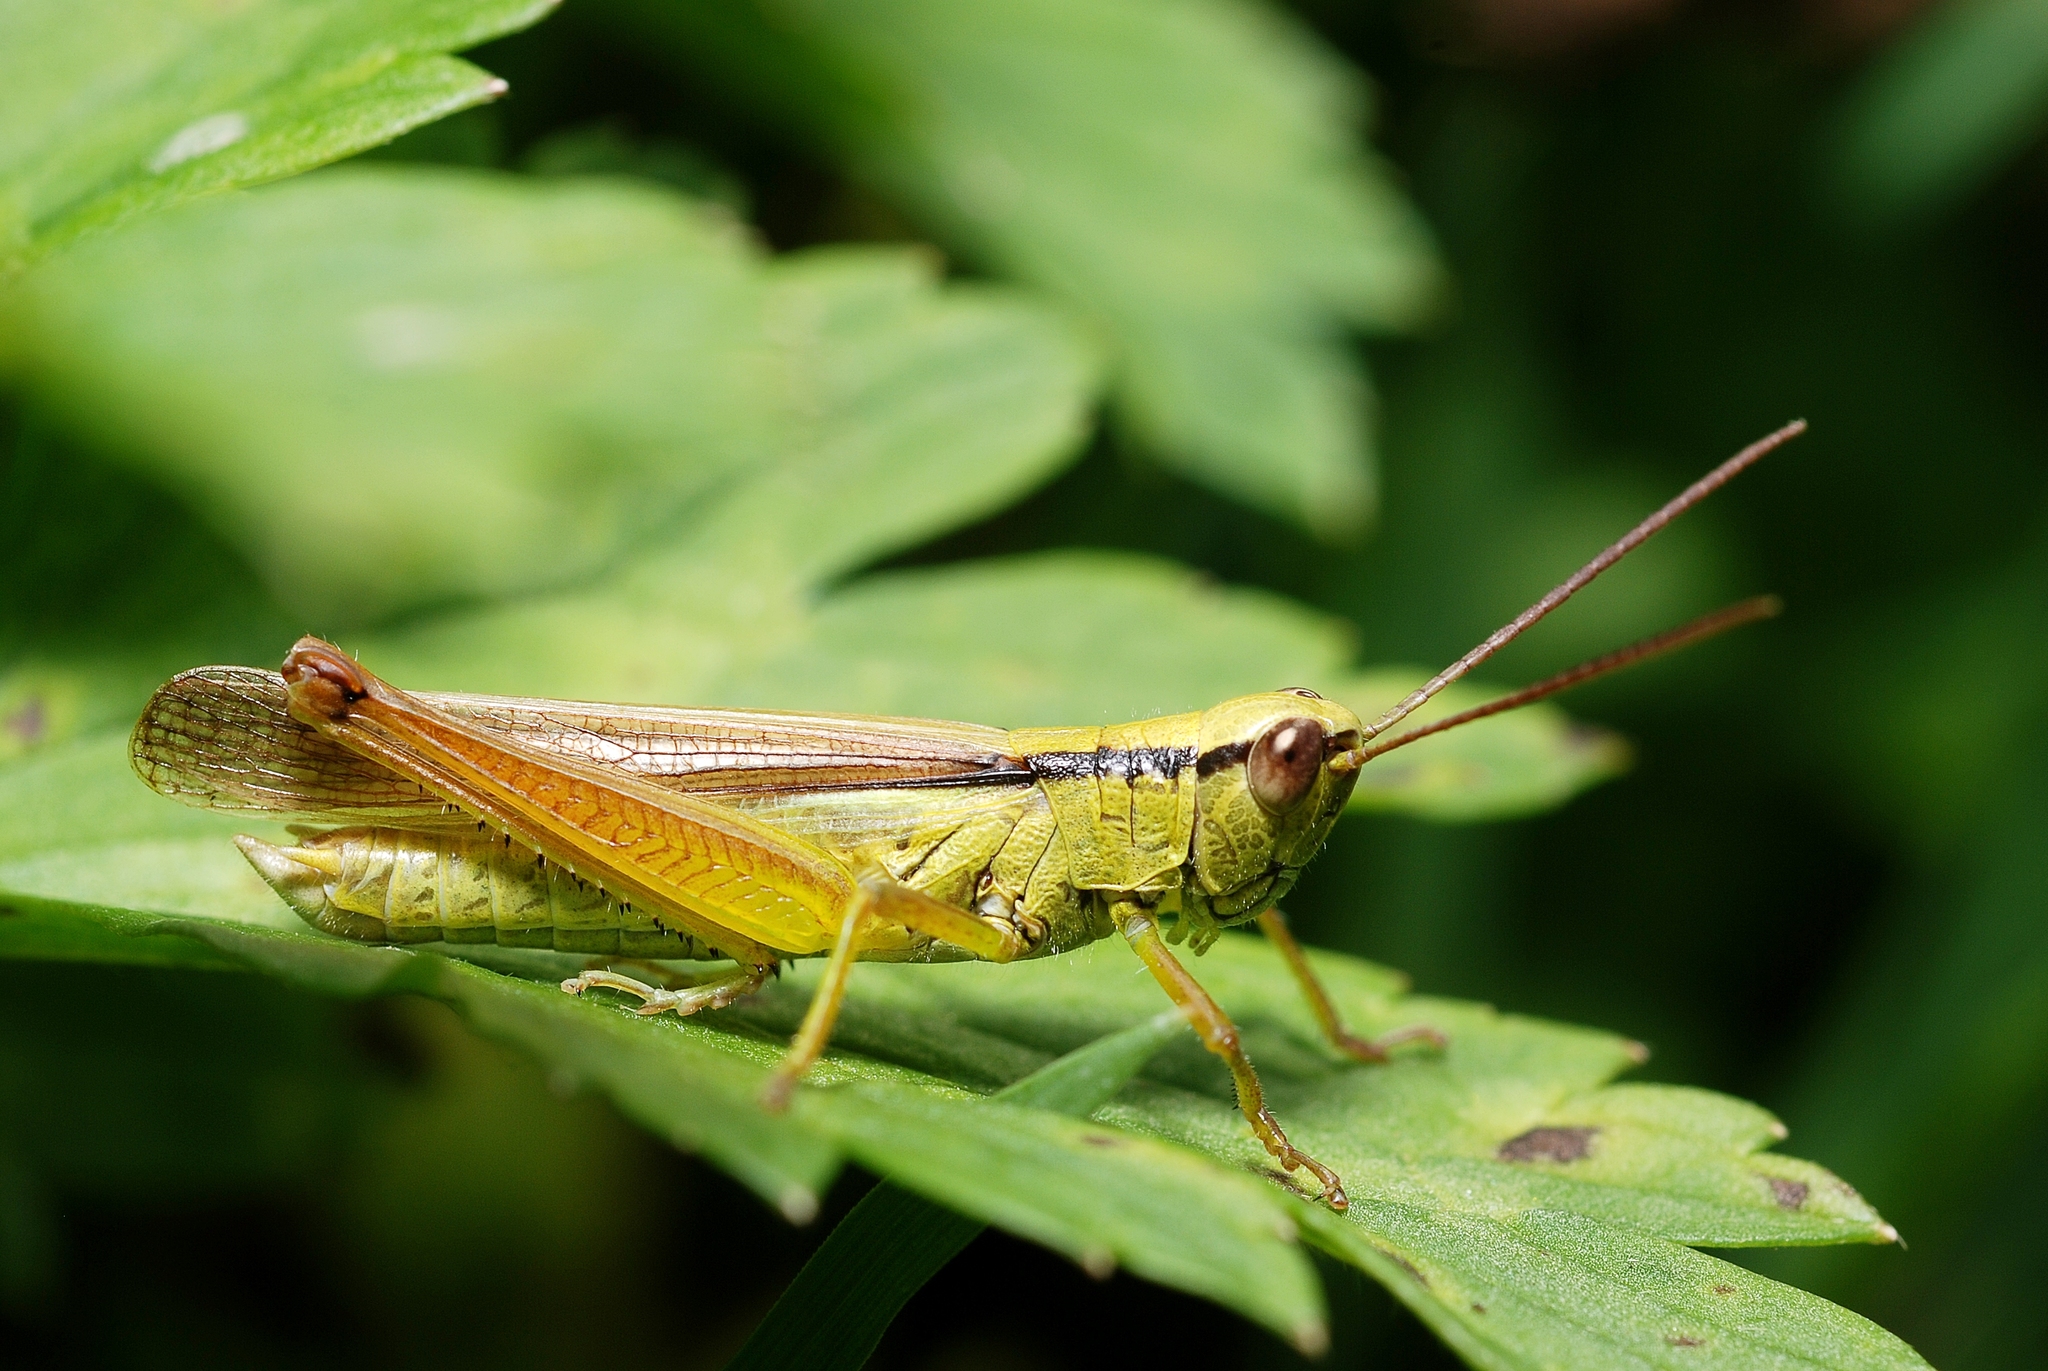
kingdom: Animalia
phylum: Arthropoda
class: Insecta
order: Orthoptera
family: Acrididae
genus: Mecostethus
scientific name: Mecostethus parapleurus
